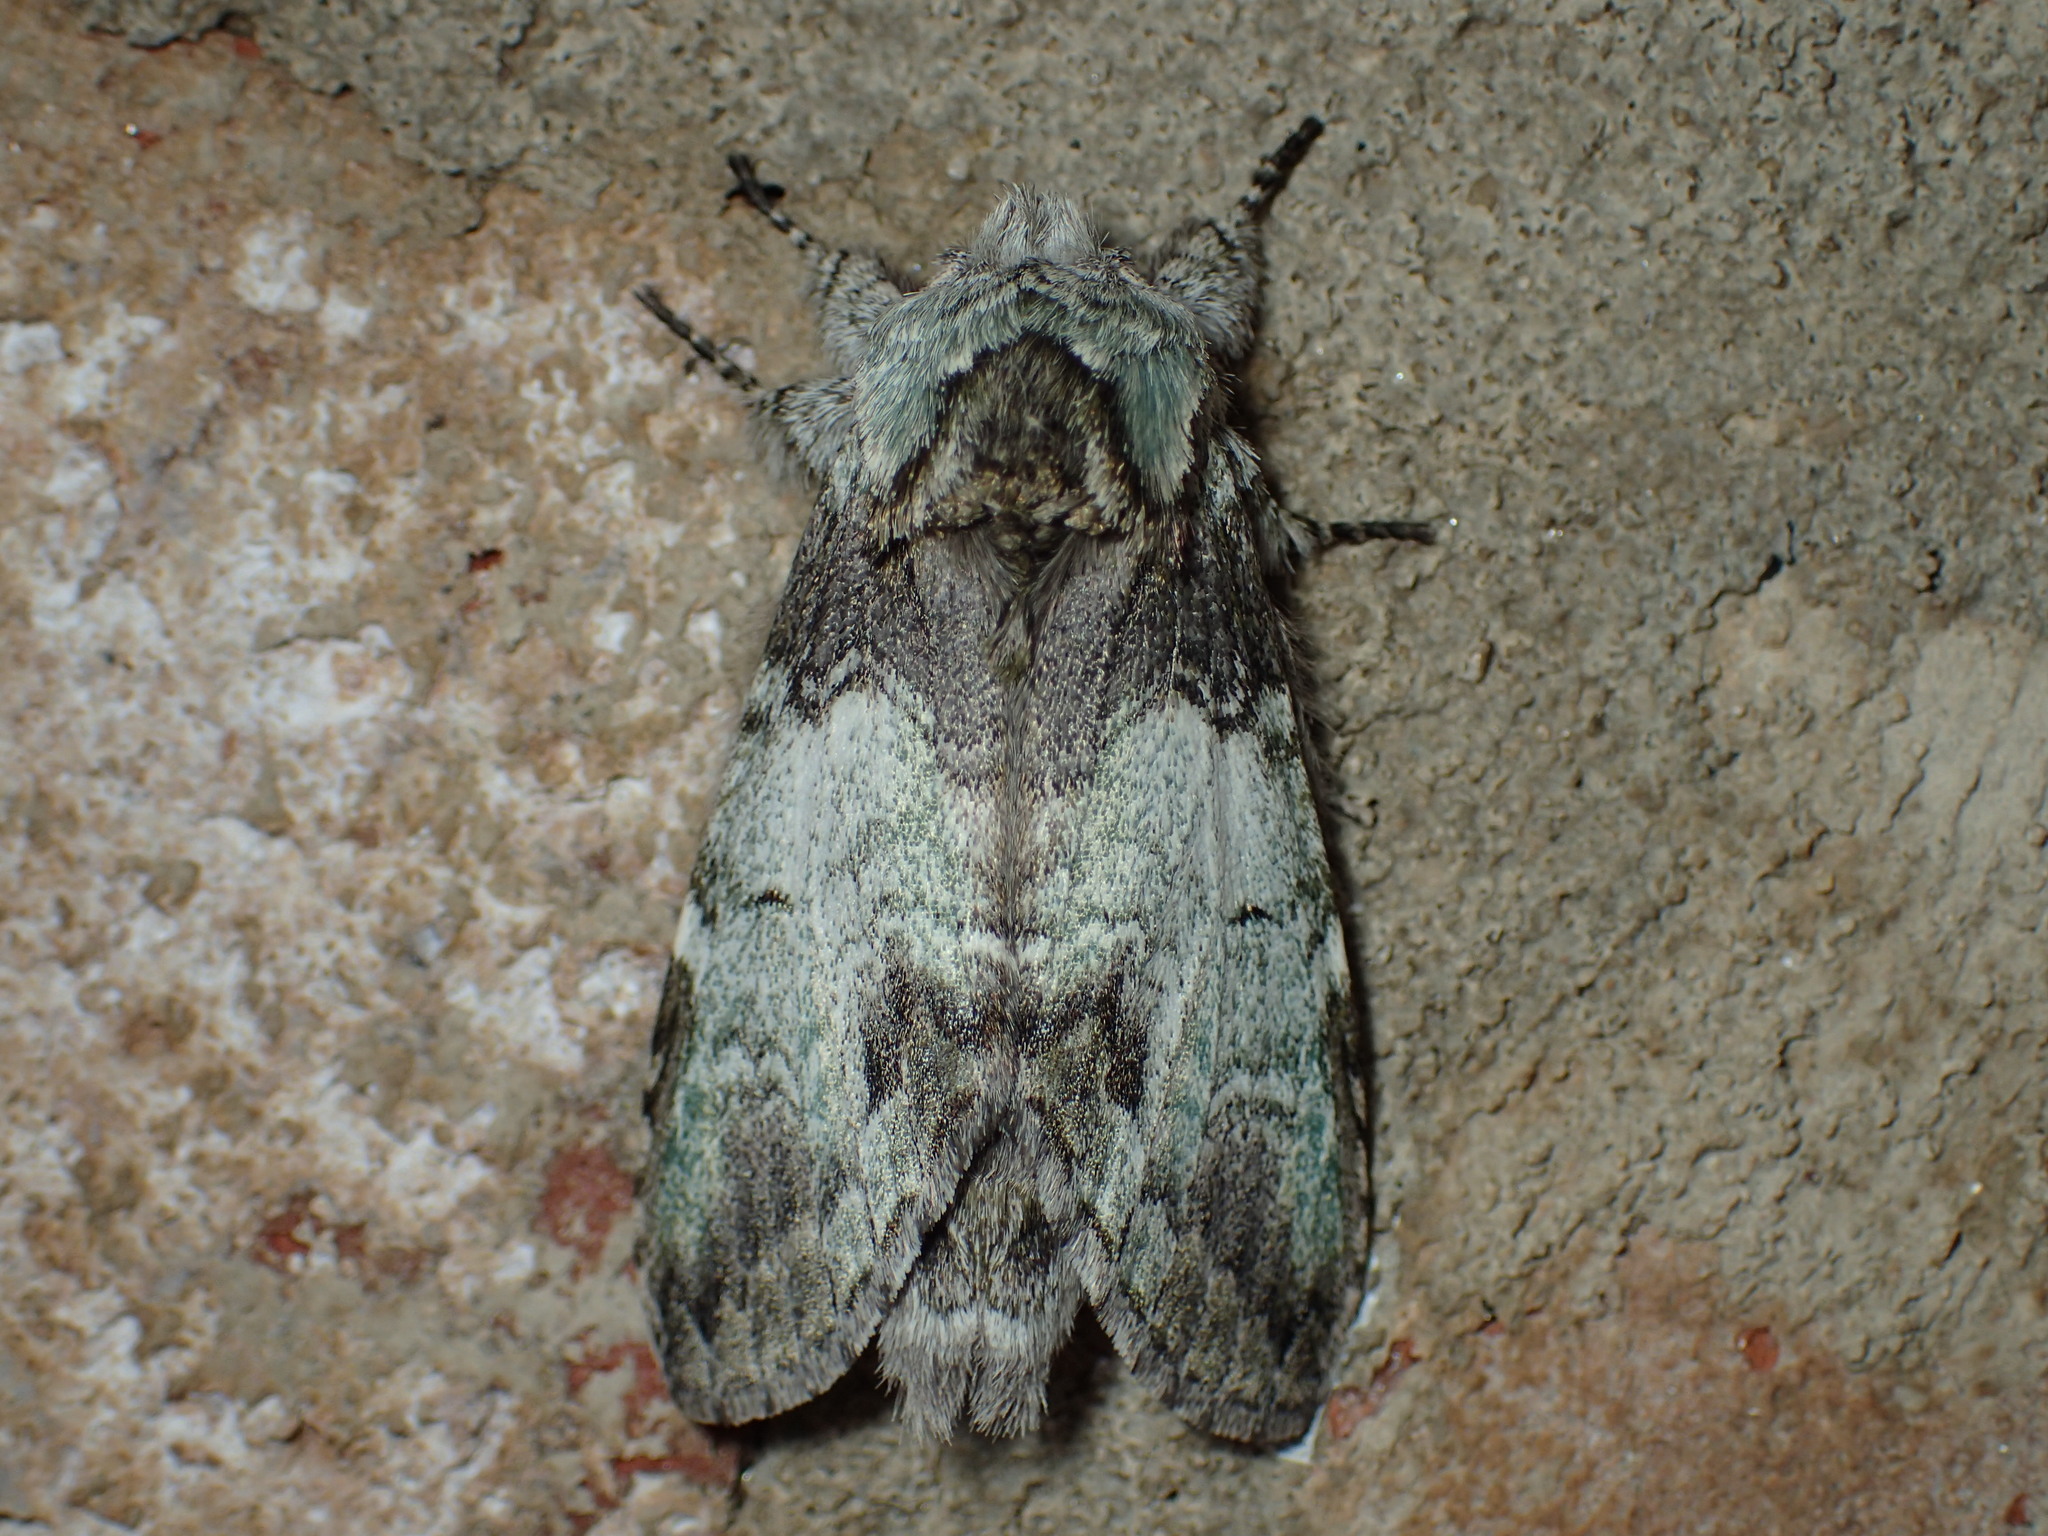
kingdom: Animalia
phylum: Arthropoda
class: Insecta
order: Lepidoptera
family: Notodontidae
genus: Macrurocampa
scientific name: Macrurocampa marthesia
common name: Mottled prominent
